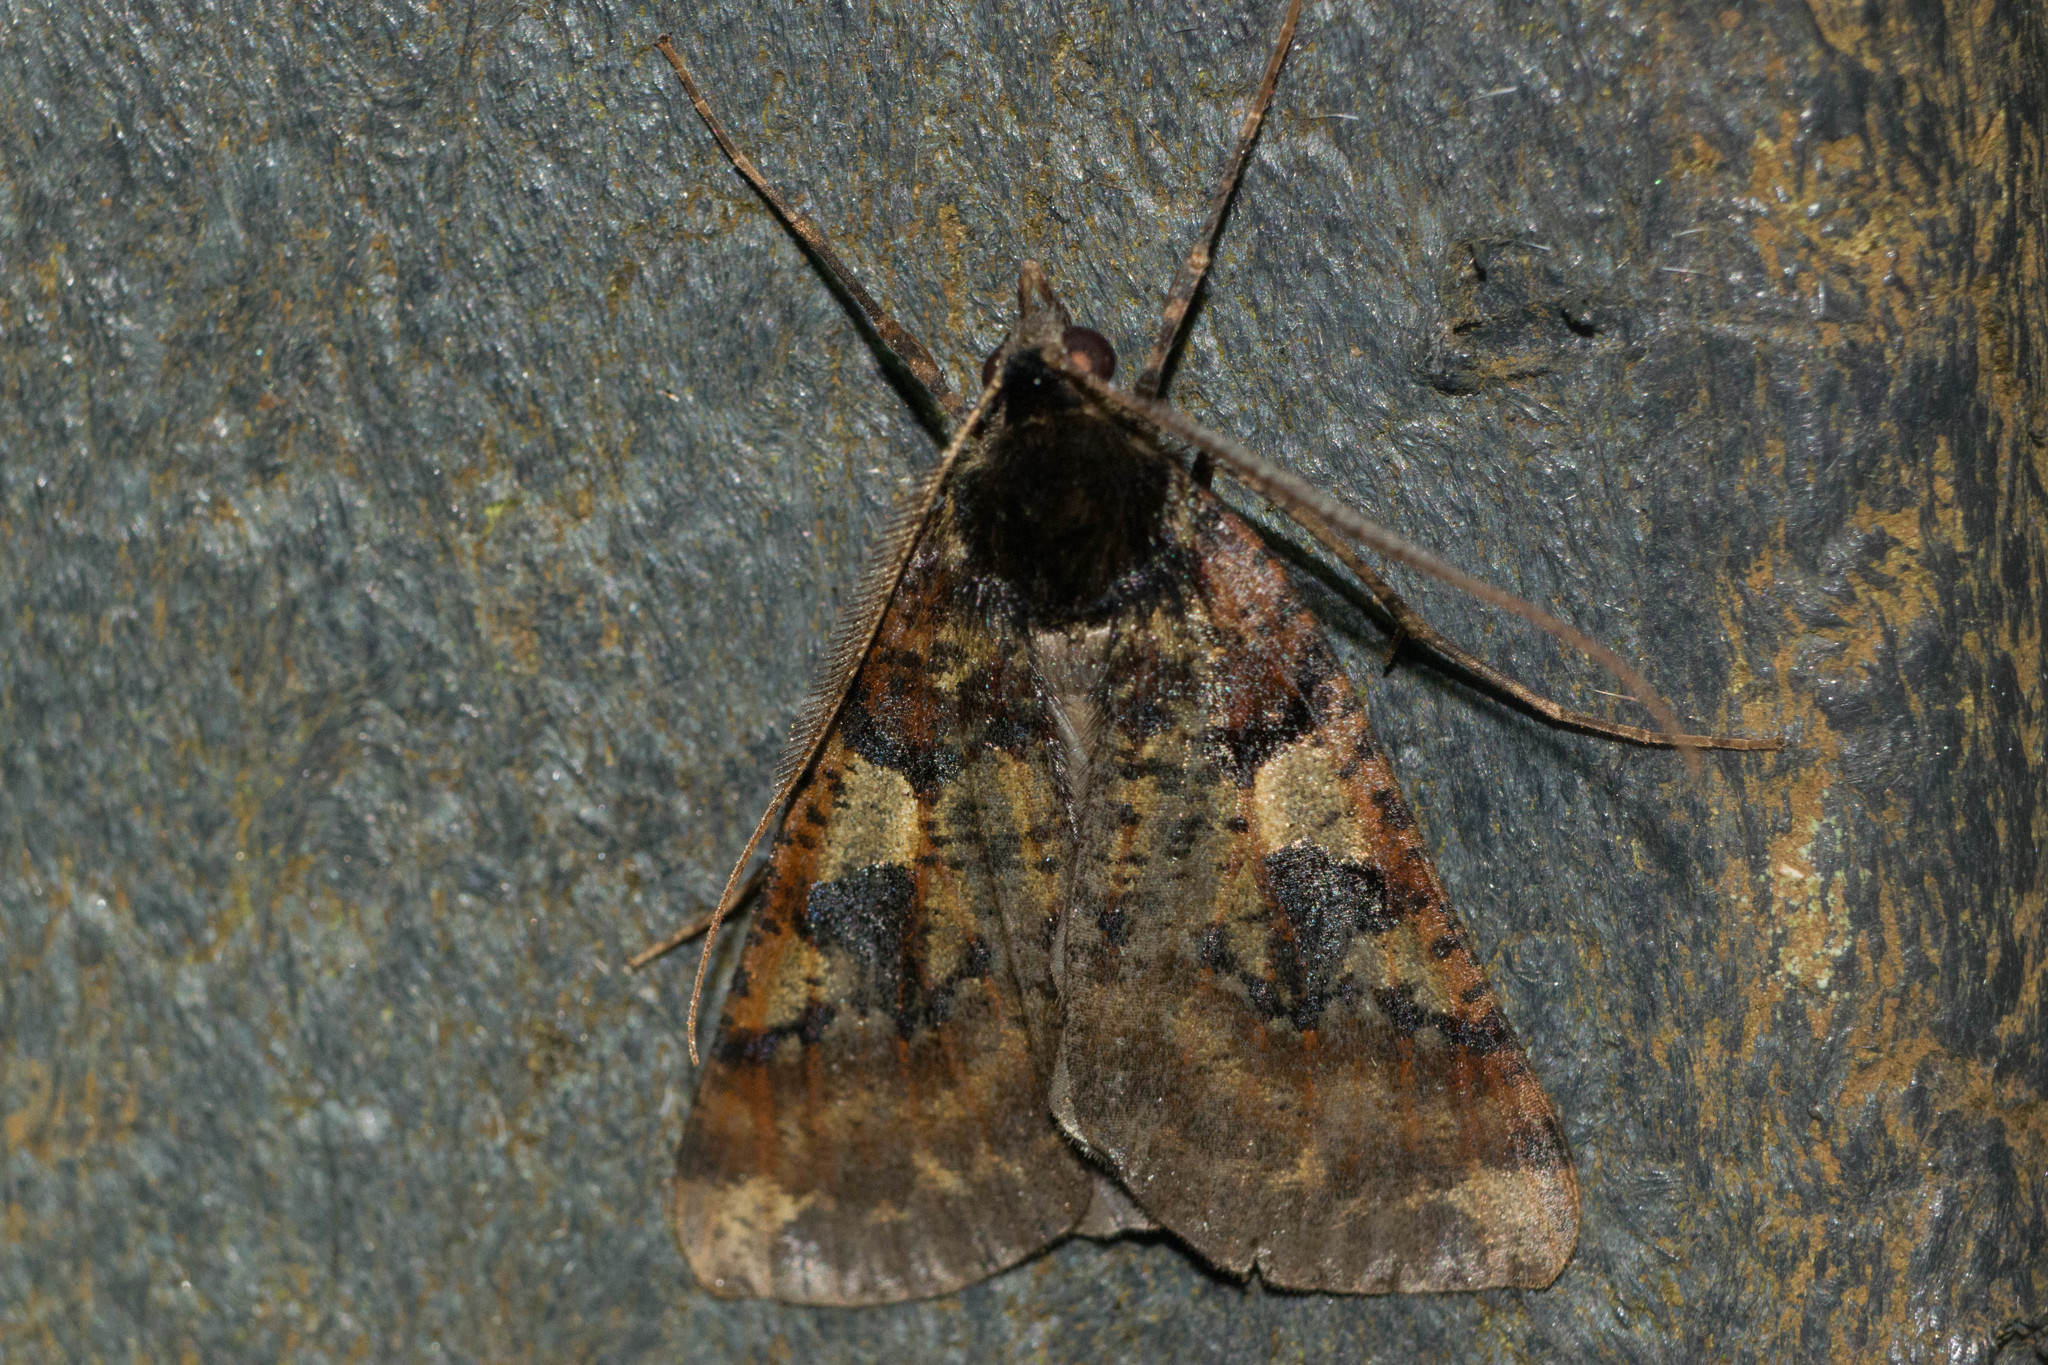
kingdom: Animalia
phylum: Arthropoda
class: Insecta
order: Lepidoptera
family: Geometridae
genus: Scotorythra
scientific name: Scotorythra pachyspila
